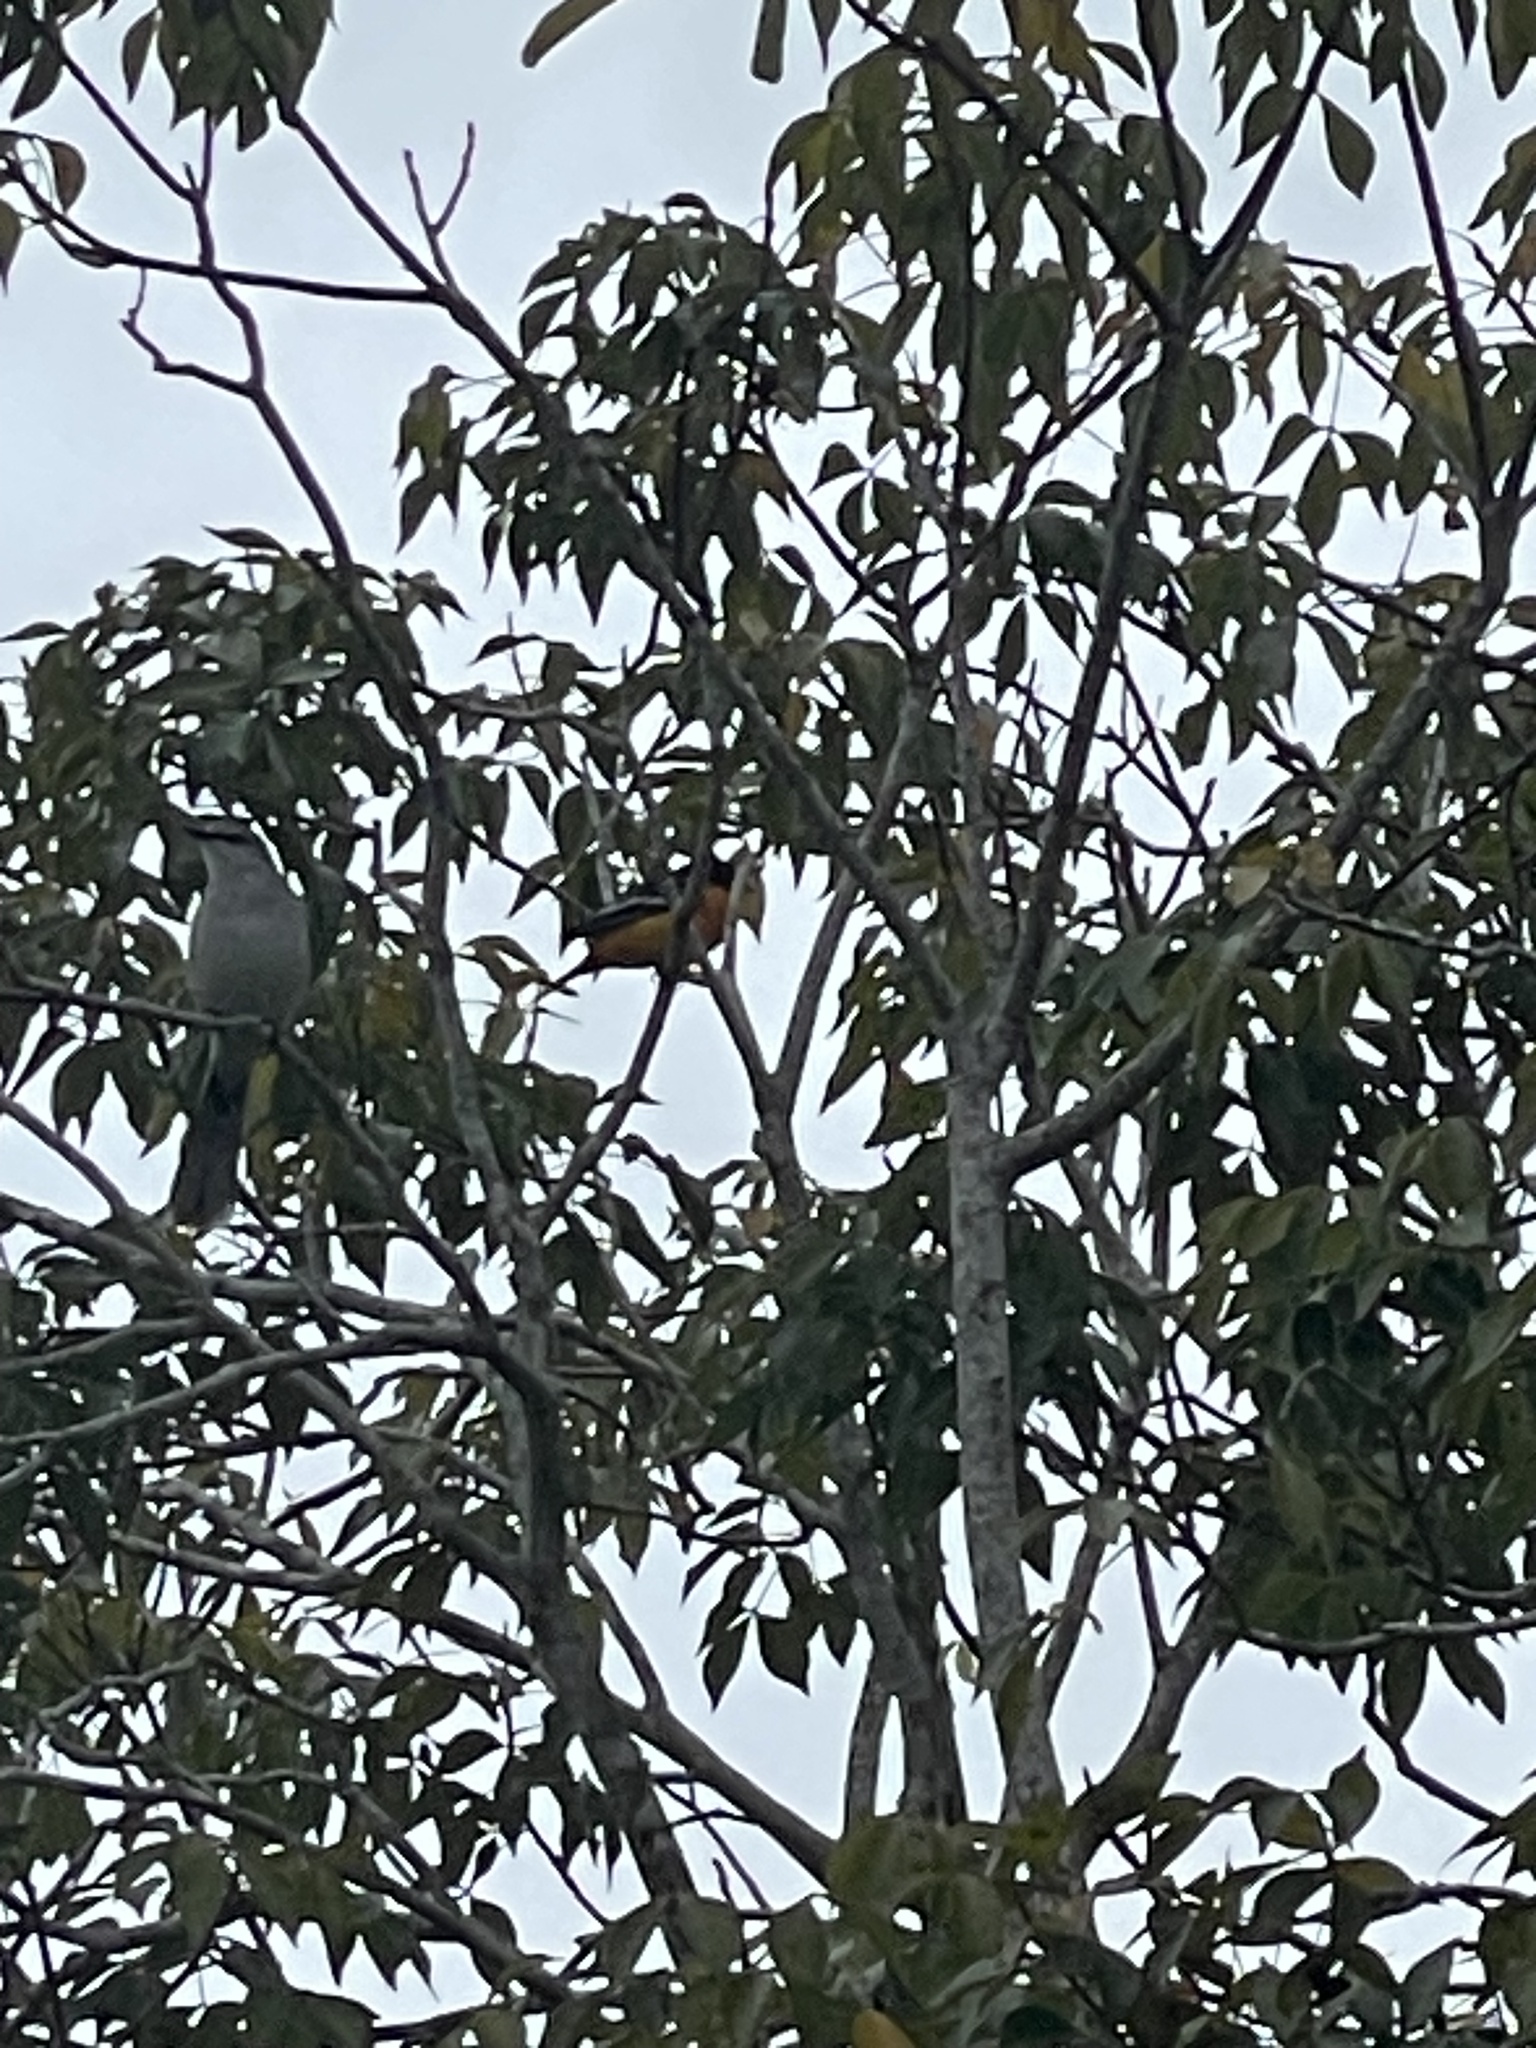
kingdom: Animalia
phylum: Chordata
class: Aves
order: Passeriformes
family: Mimidae
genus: Mimus
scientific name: Mimus gilvus
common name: Tropical mockingbird
